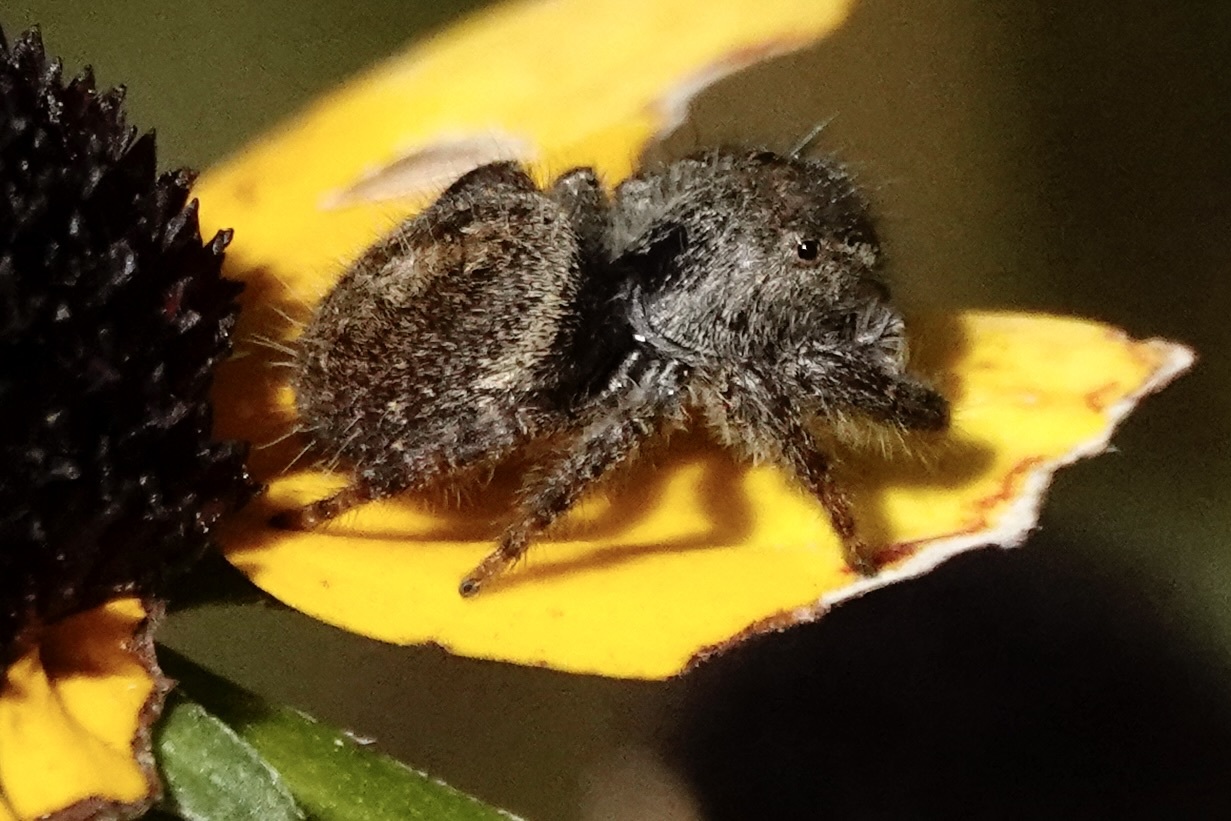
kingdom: Animalia
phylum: Arthropoda
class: Arachnida
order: Araneae
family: Salticidae
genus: Phidippus
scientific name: Phidippus princeps
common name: Grayish jumping spider
